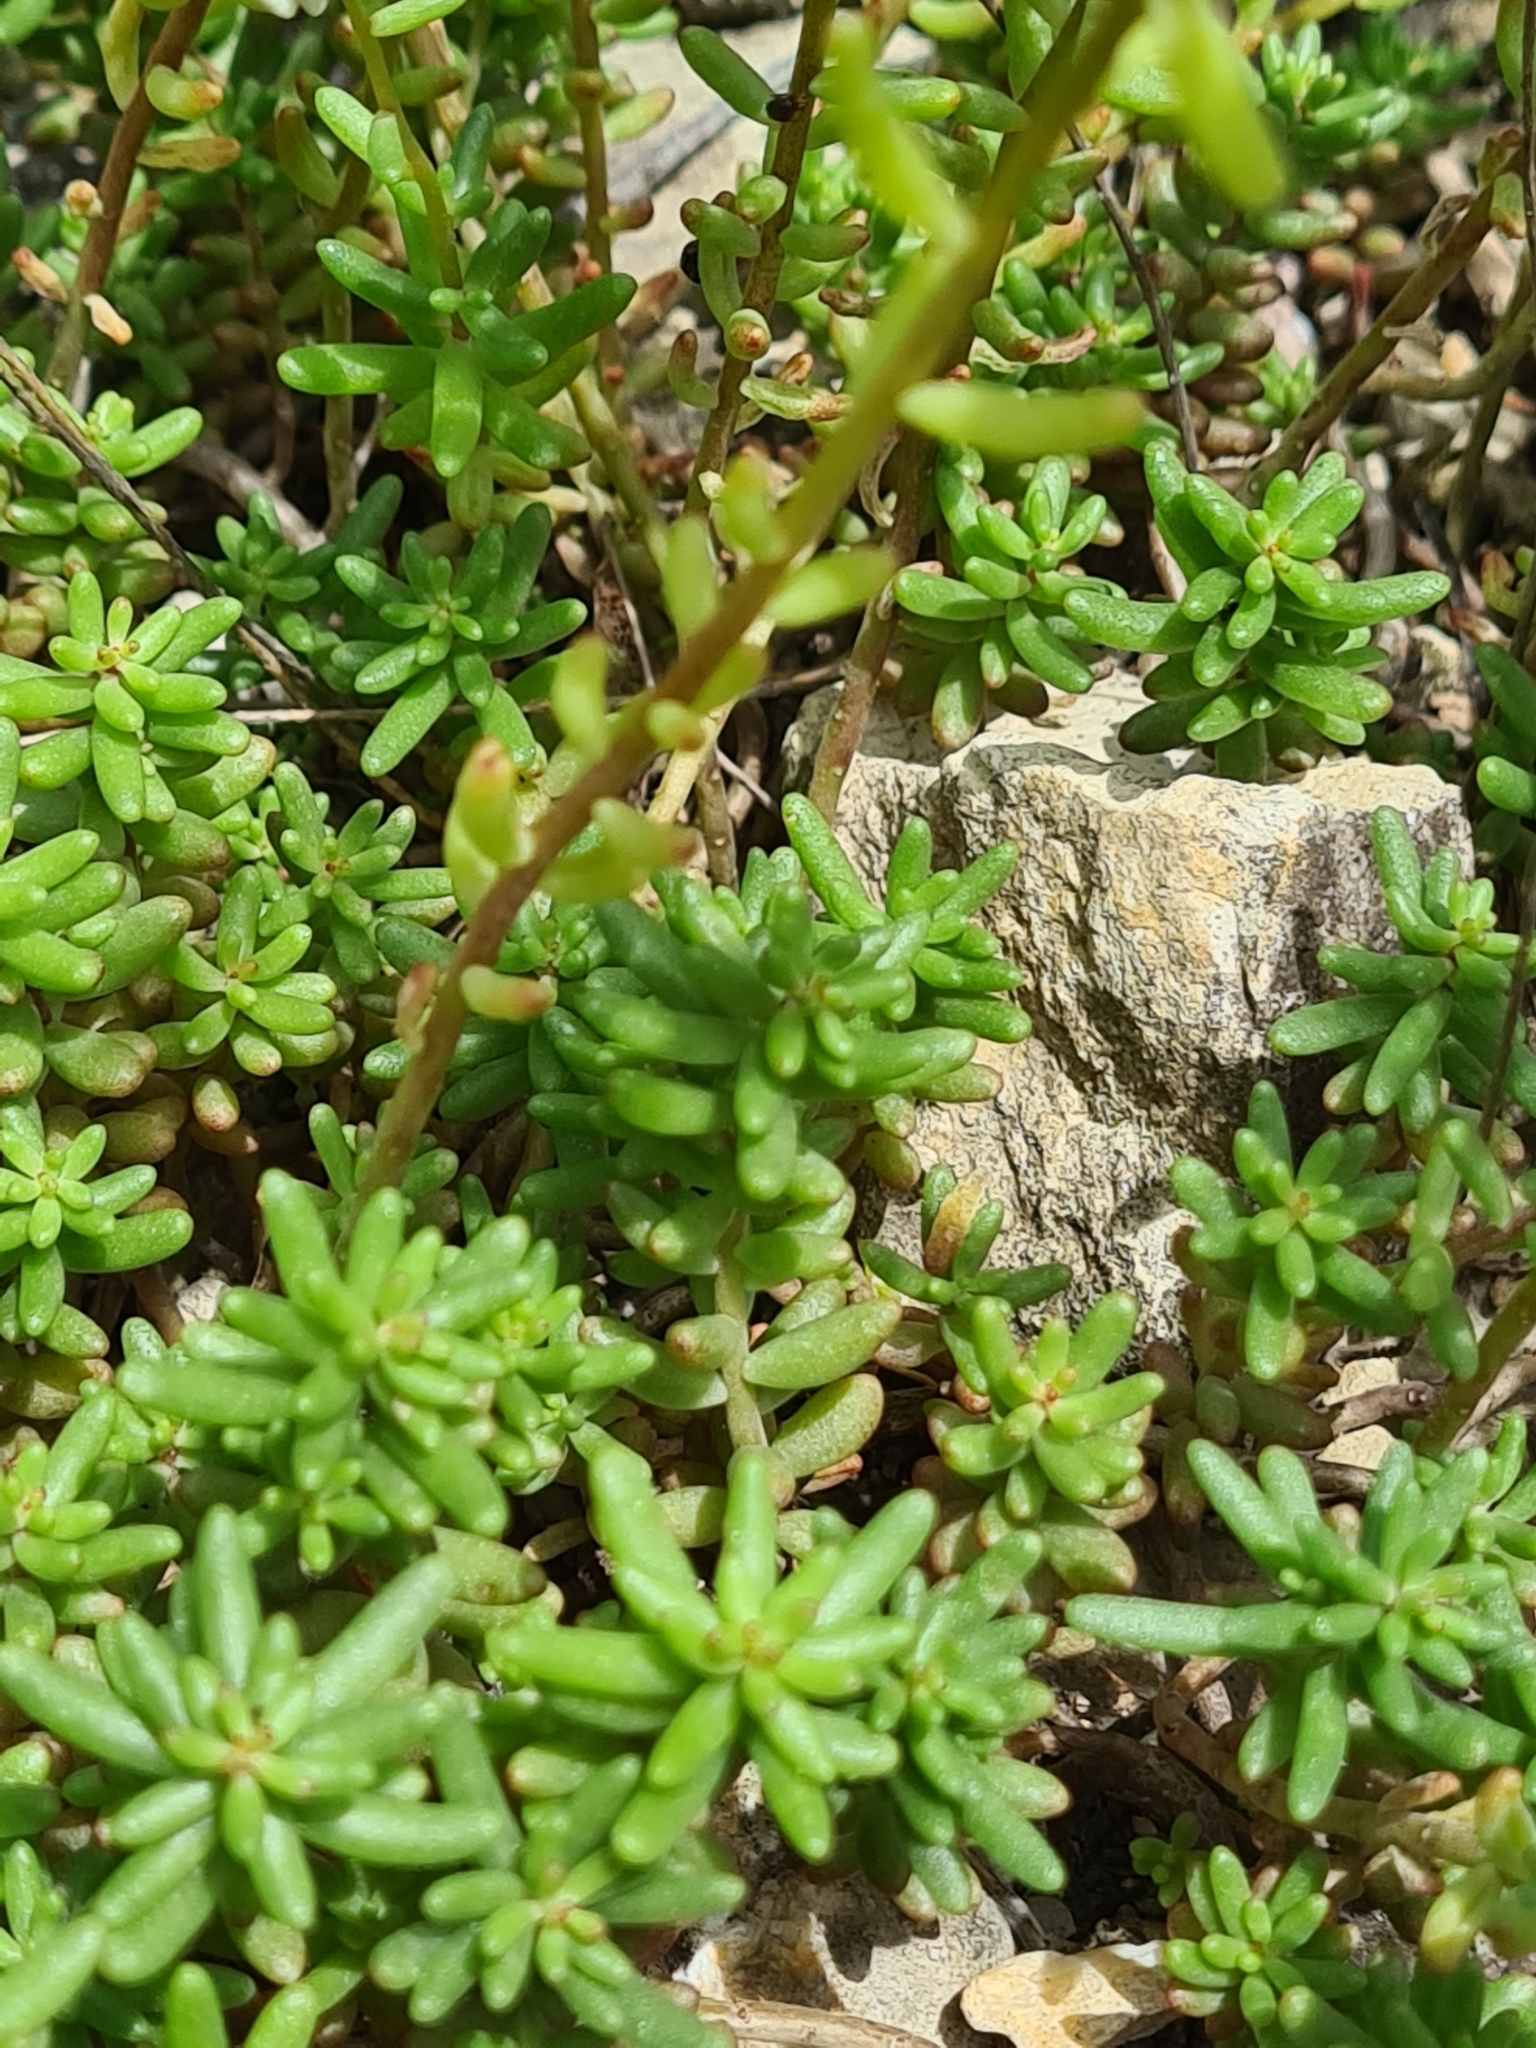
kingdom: Plantae
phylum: Tracheophyta
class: Magnoliopsida
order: Saxifragales
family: Crassulaceae
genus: Sedum
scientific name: Sedum album
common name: White stonecrop
